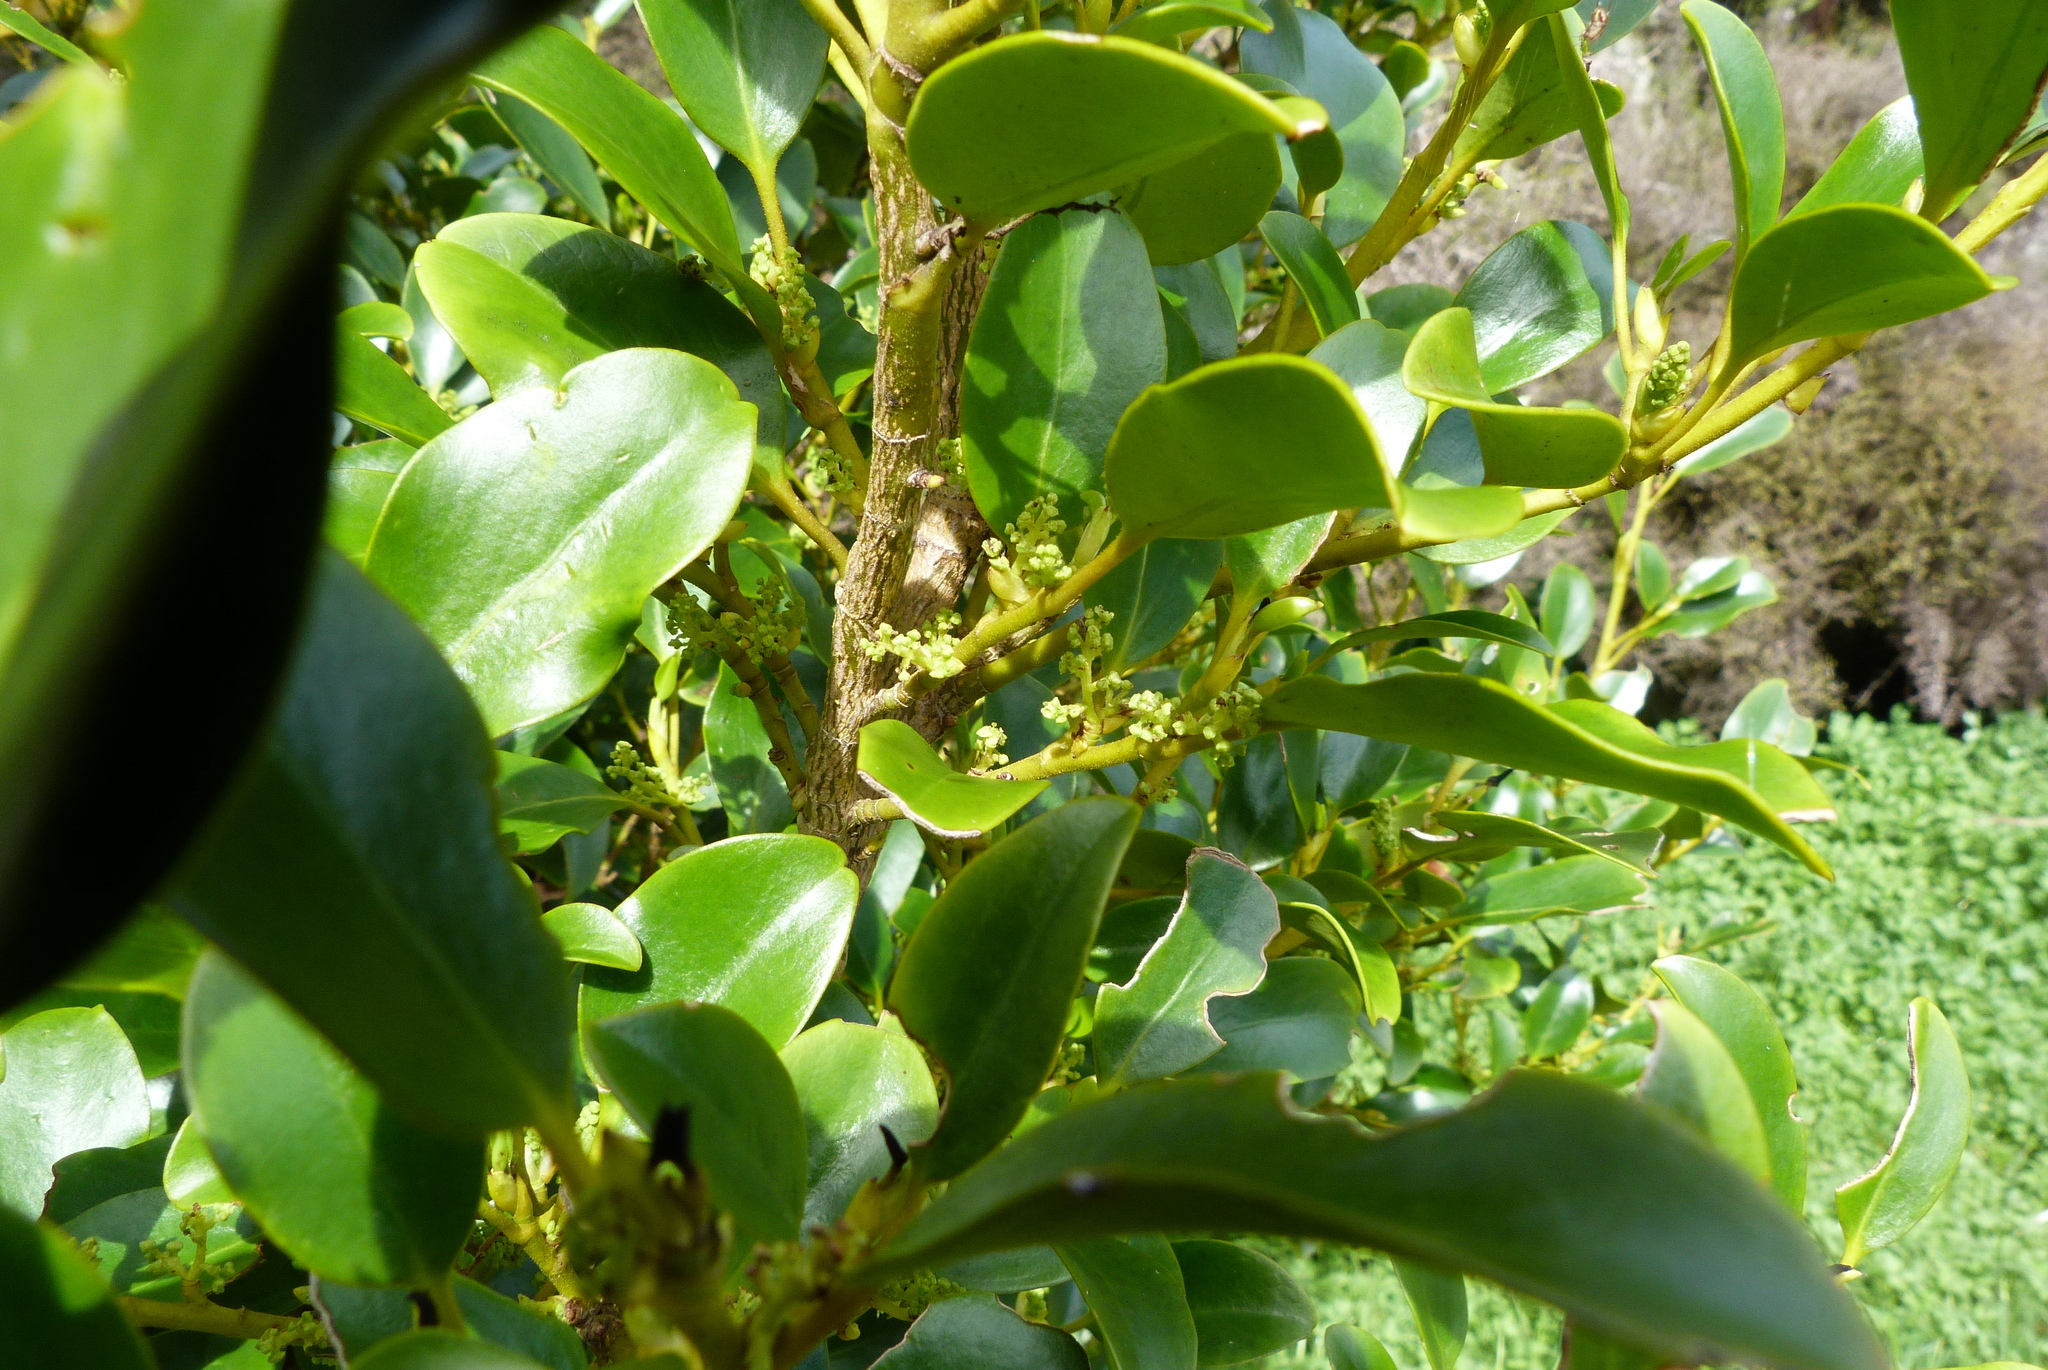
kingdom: Plantae
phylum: Tracheophyta
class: Magnoliopsida
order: Apiales
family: Griseliniaceae
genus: Griselinia
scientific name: Griselinia littoralis
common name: New zealand broadleaf
